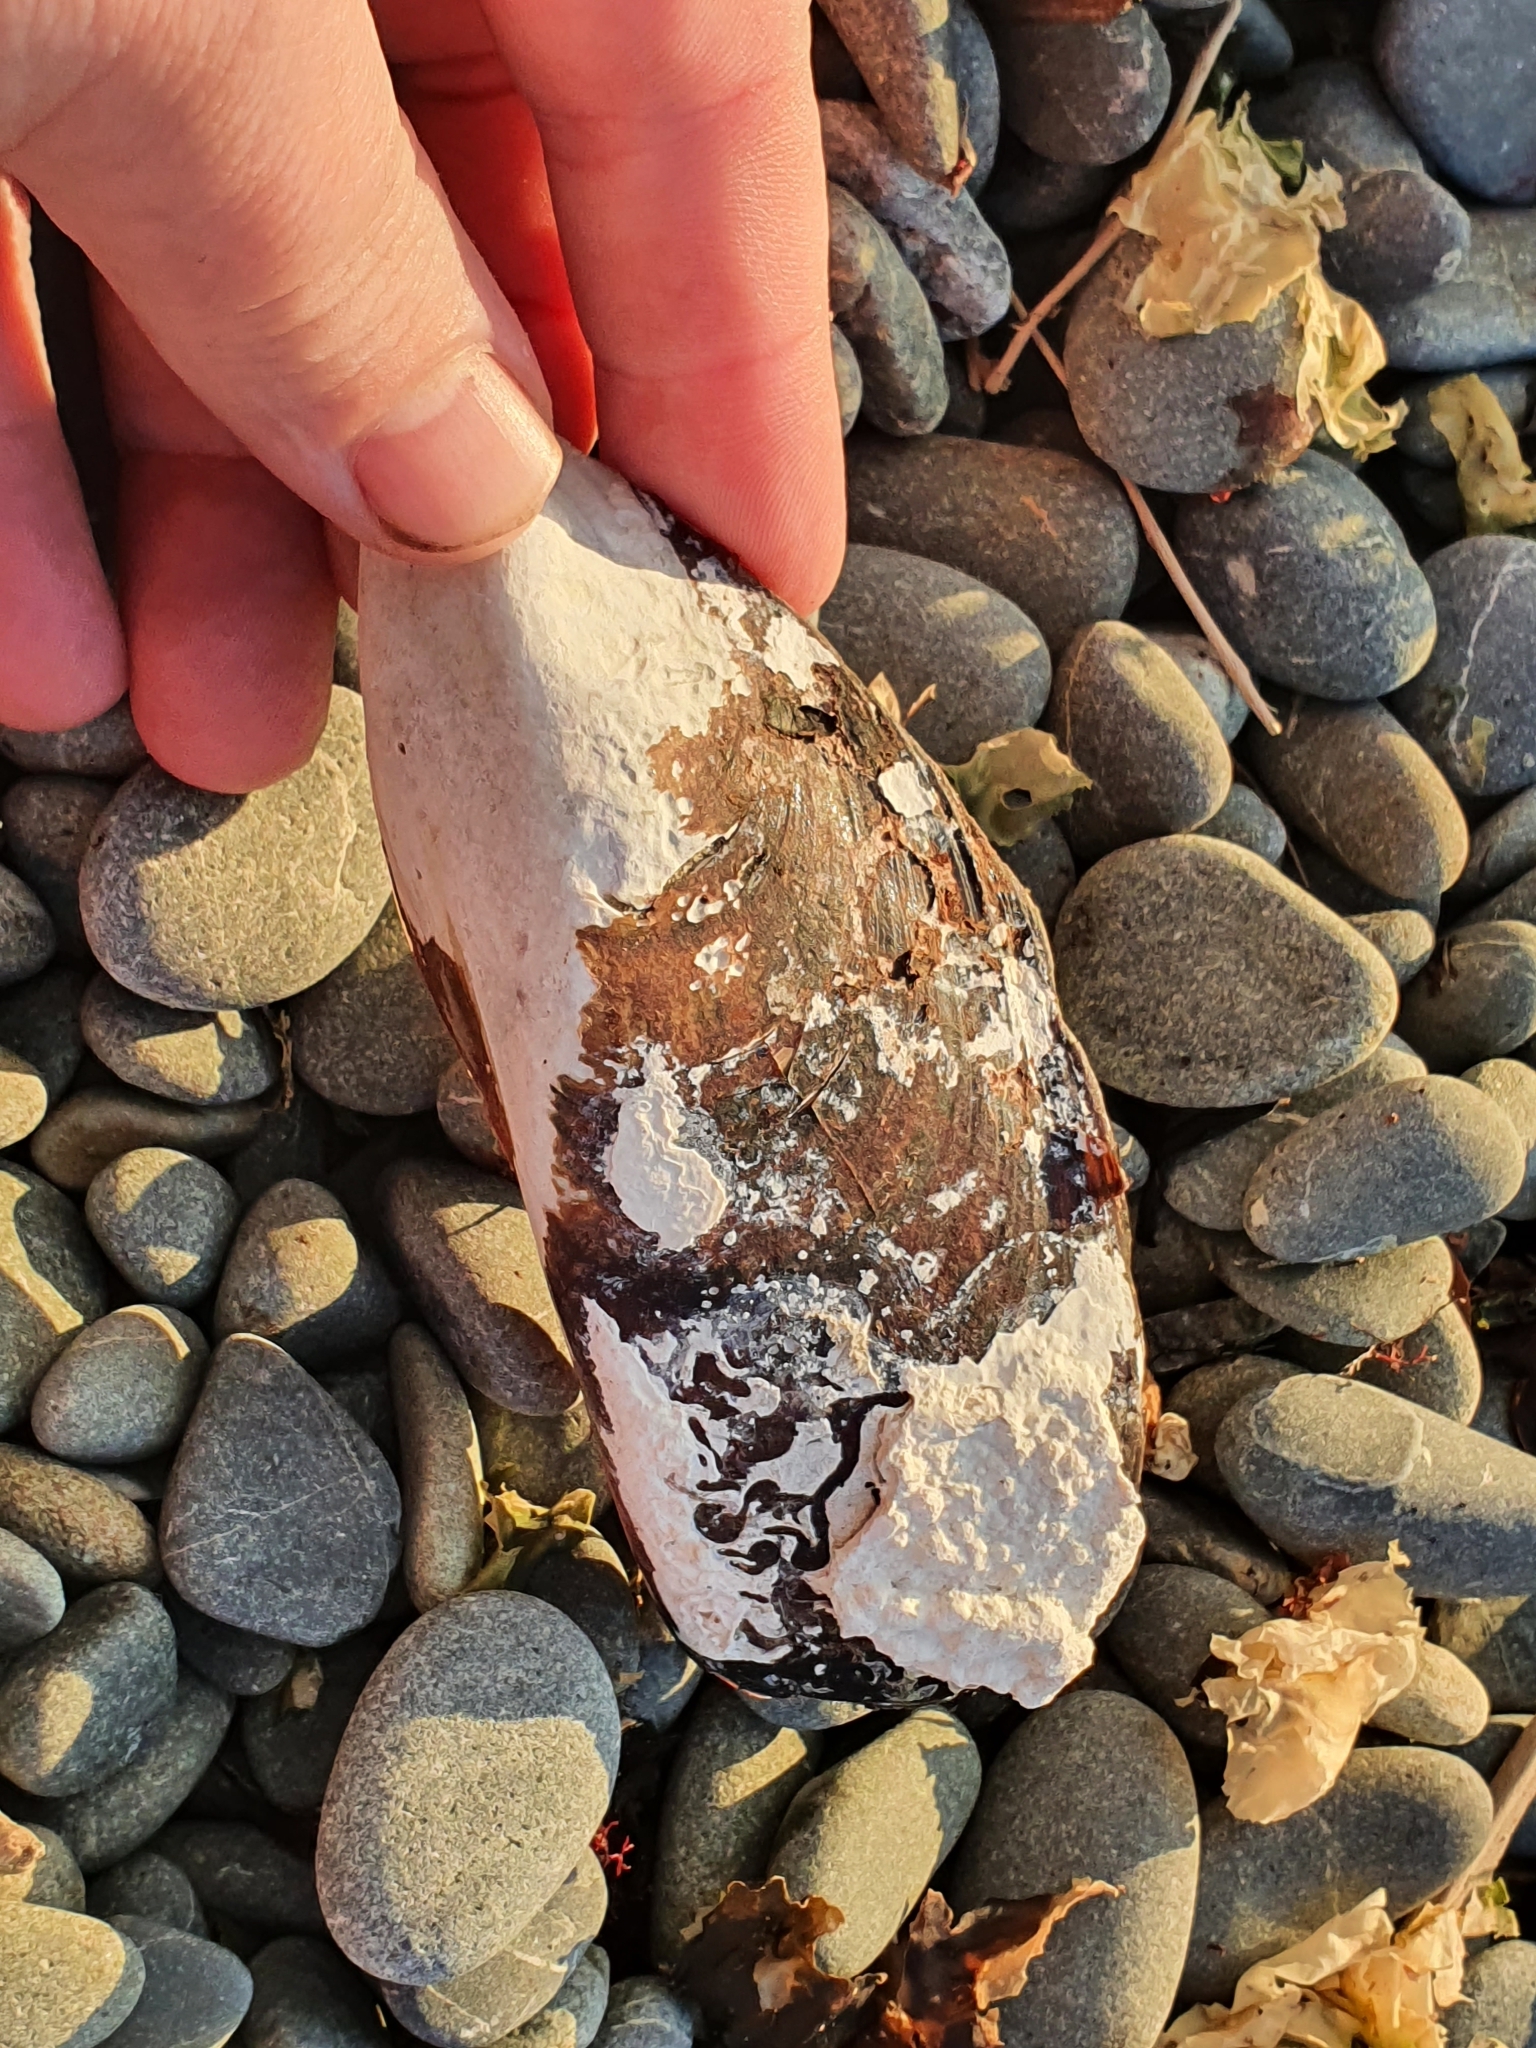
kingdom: Animalia
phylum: Mollusca
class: Bivalvia
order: Mytilida
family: Mytilidae
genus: Perna
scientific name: Perna canaliculus
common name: New zealand greenshelltm
